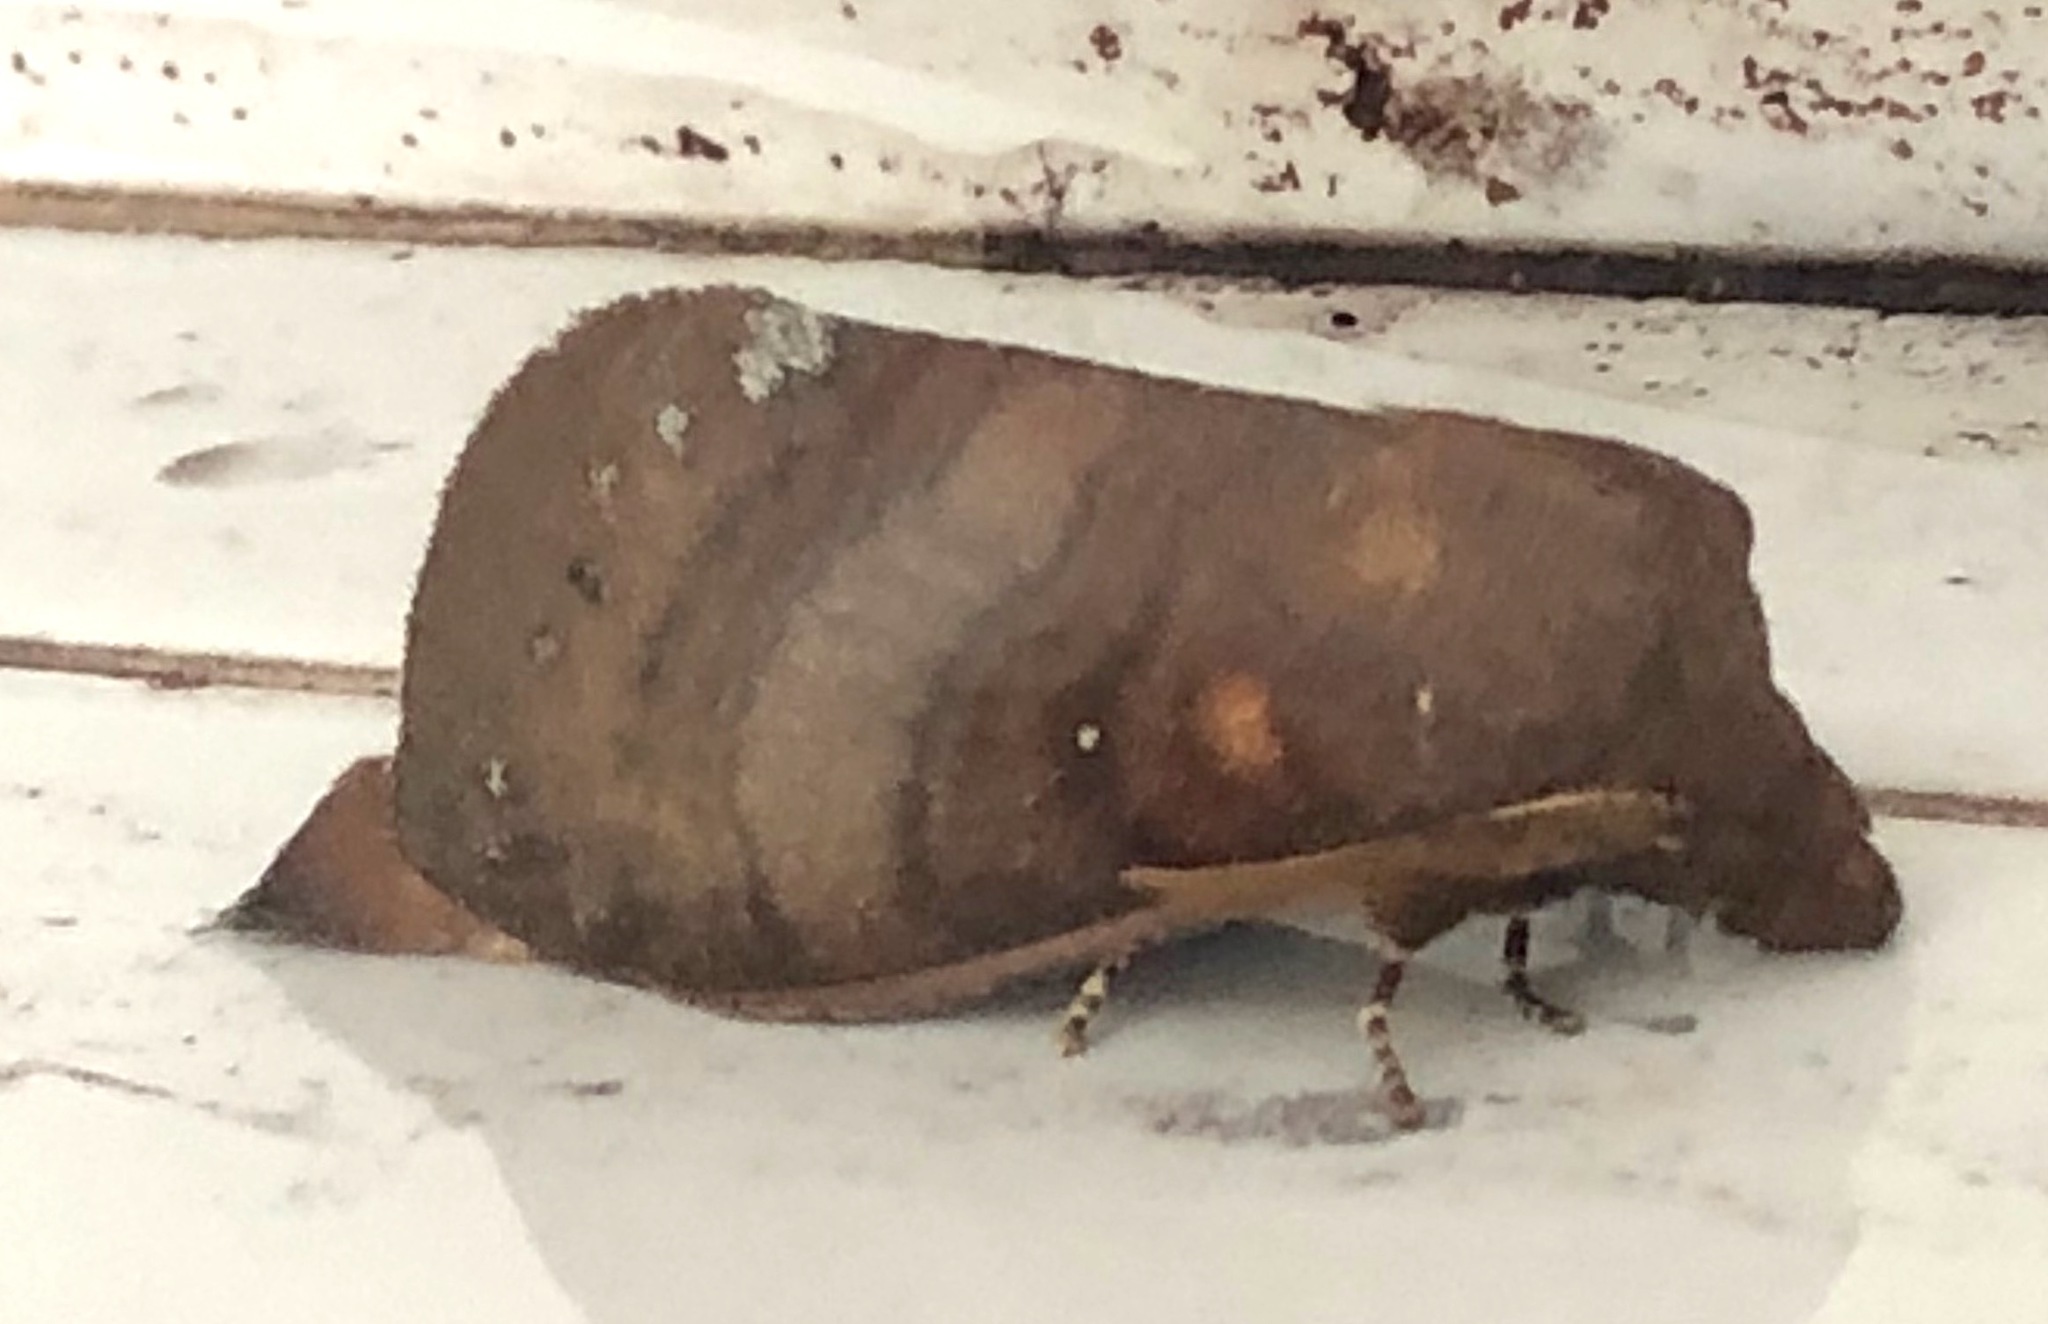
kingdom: Animalia
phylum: Arthropoda
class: Insecta
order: Lepidoptera
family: Lasiocampidae
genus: Kunugia
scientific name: Kunugia latipennis
